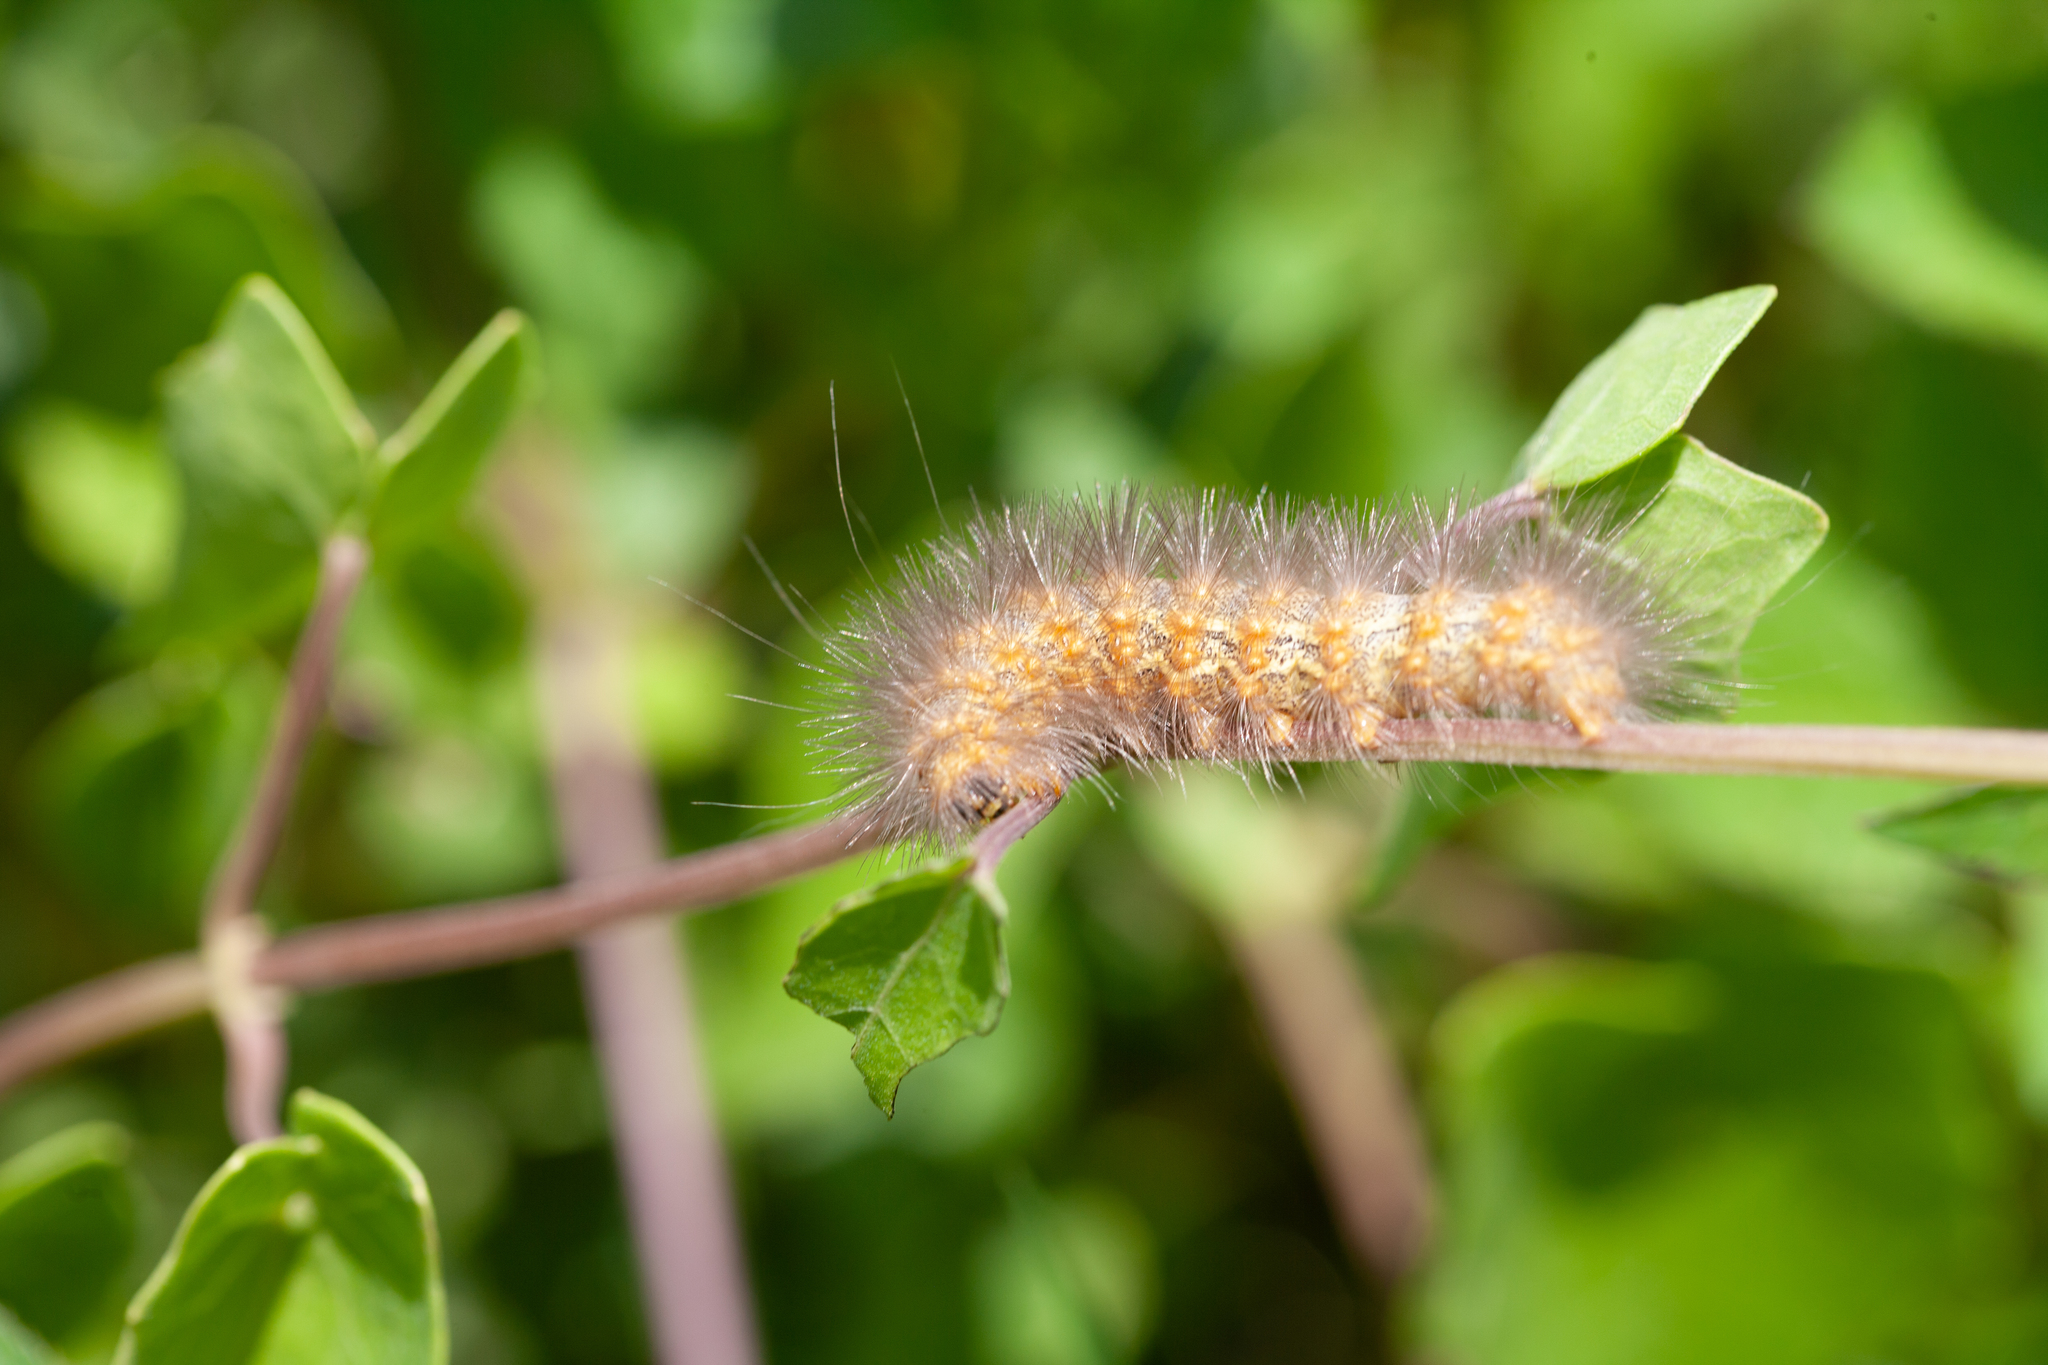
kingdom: Animalia
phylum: Arthropoda
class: Insecta
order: Lepidoptera
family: Erebidae
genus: Estigmene
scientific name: Estigmene acrea
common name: Salt marsh moth
